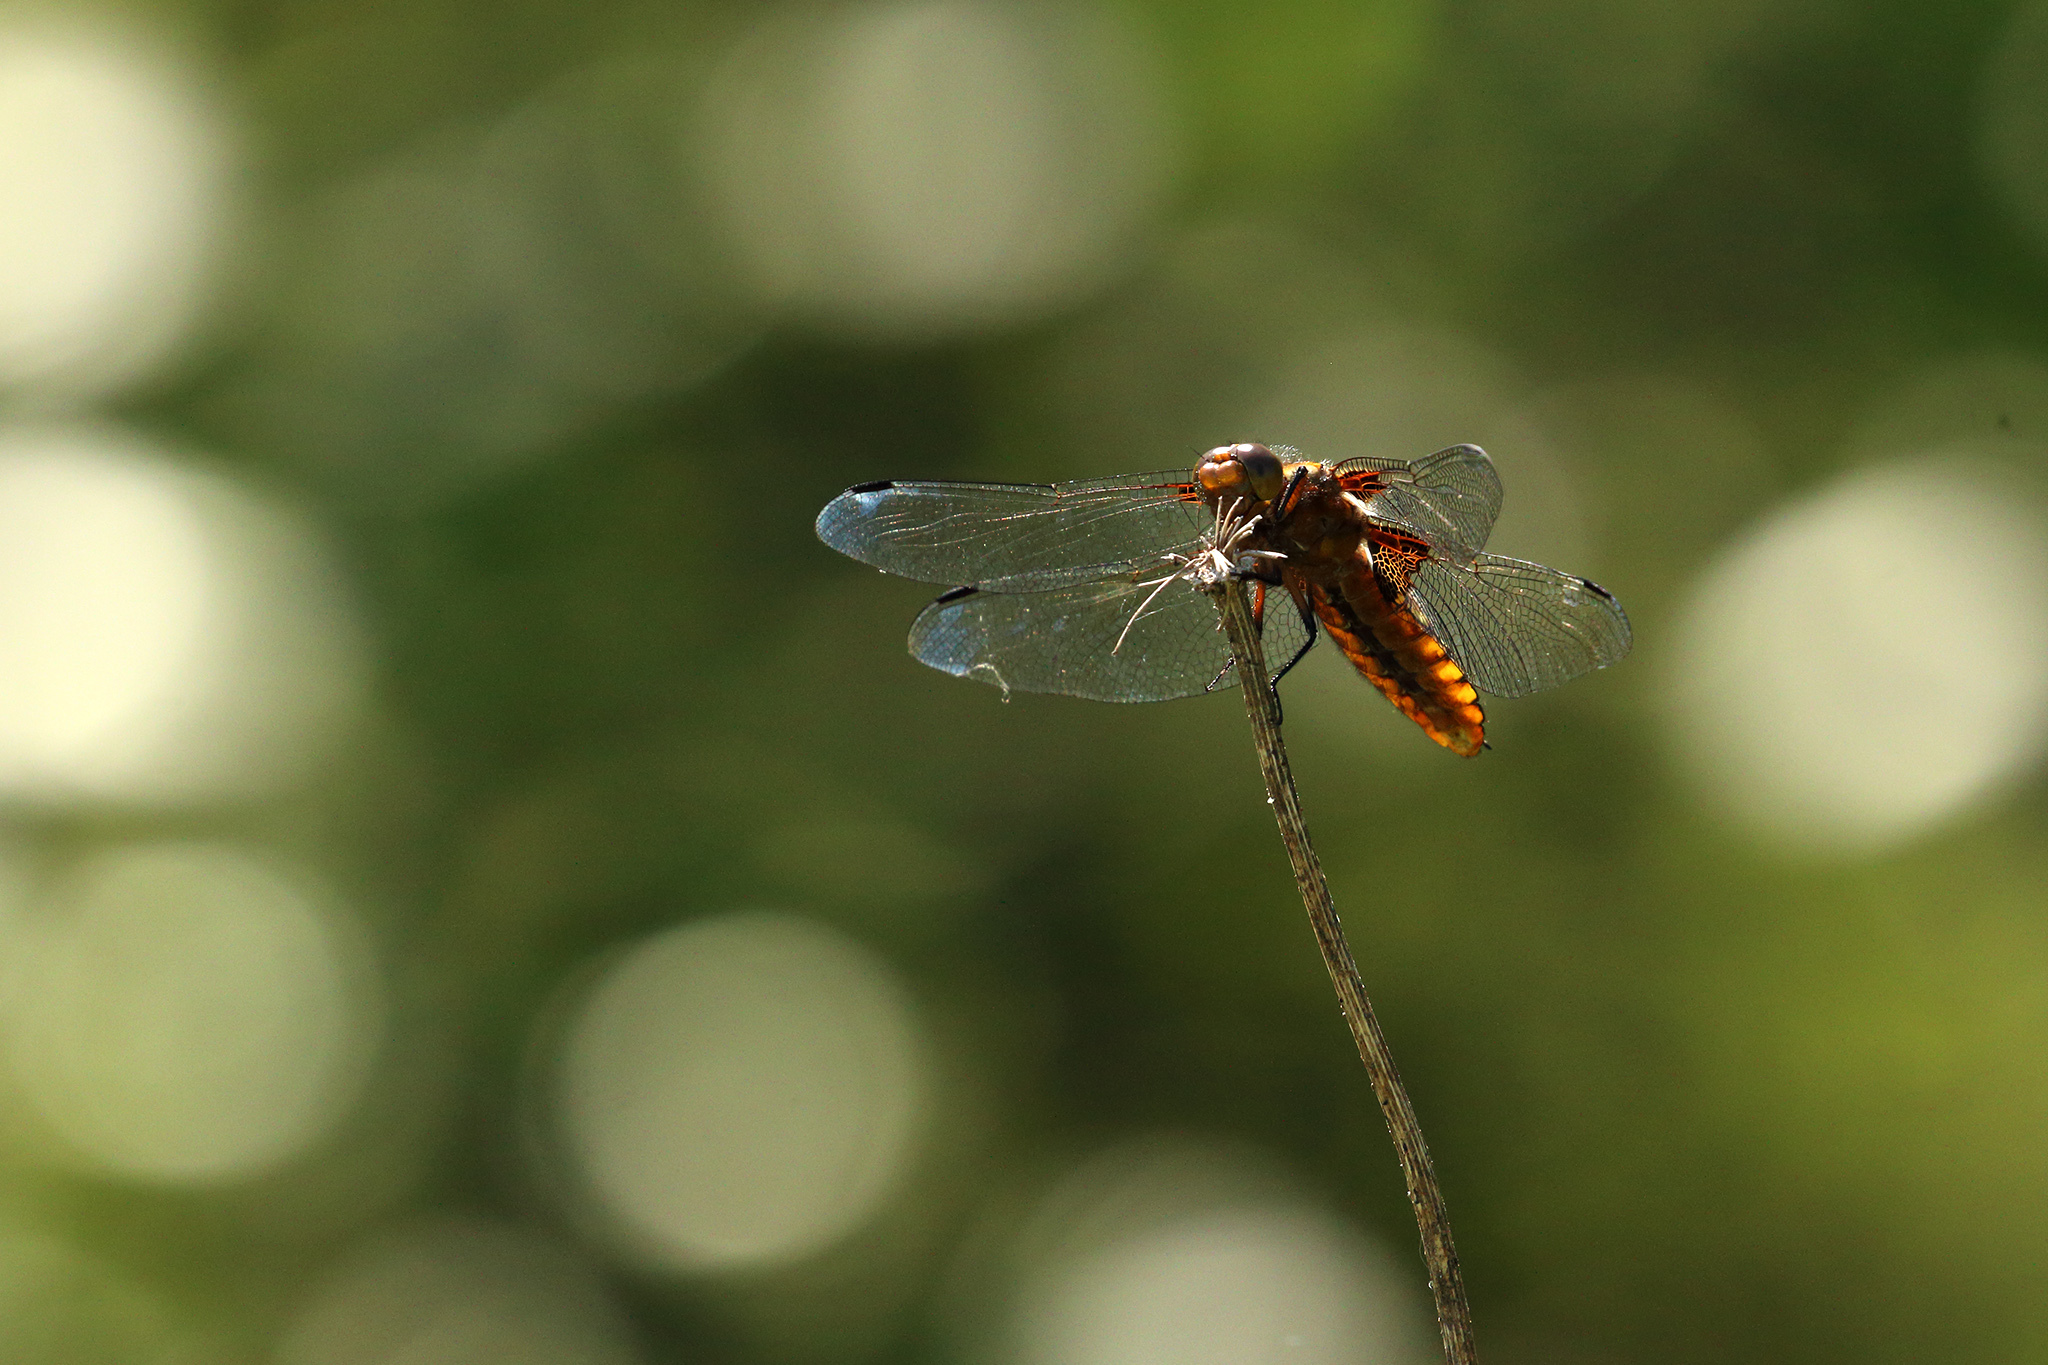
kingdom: Animalia
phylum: Arthropoda
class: Insecta
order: Odonata
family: Libellulidae
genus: Libellula
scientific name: Libellula depressa
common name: Broad-bodied chaser
